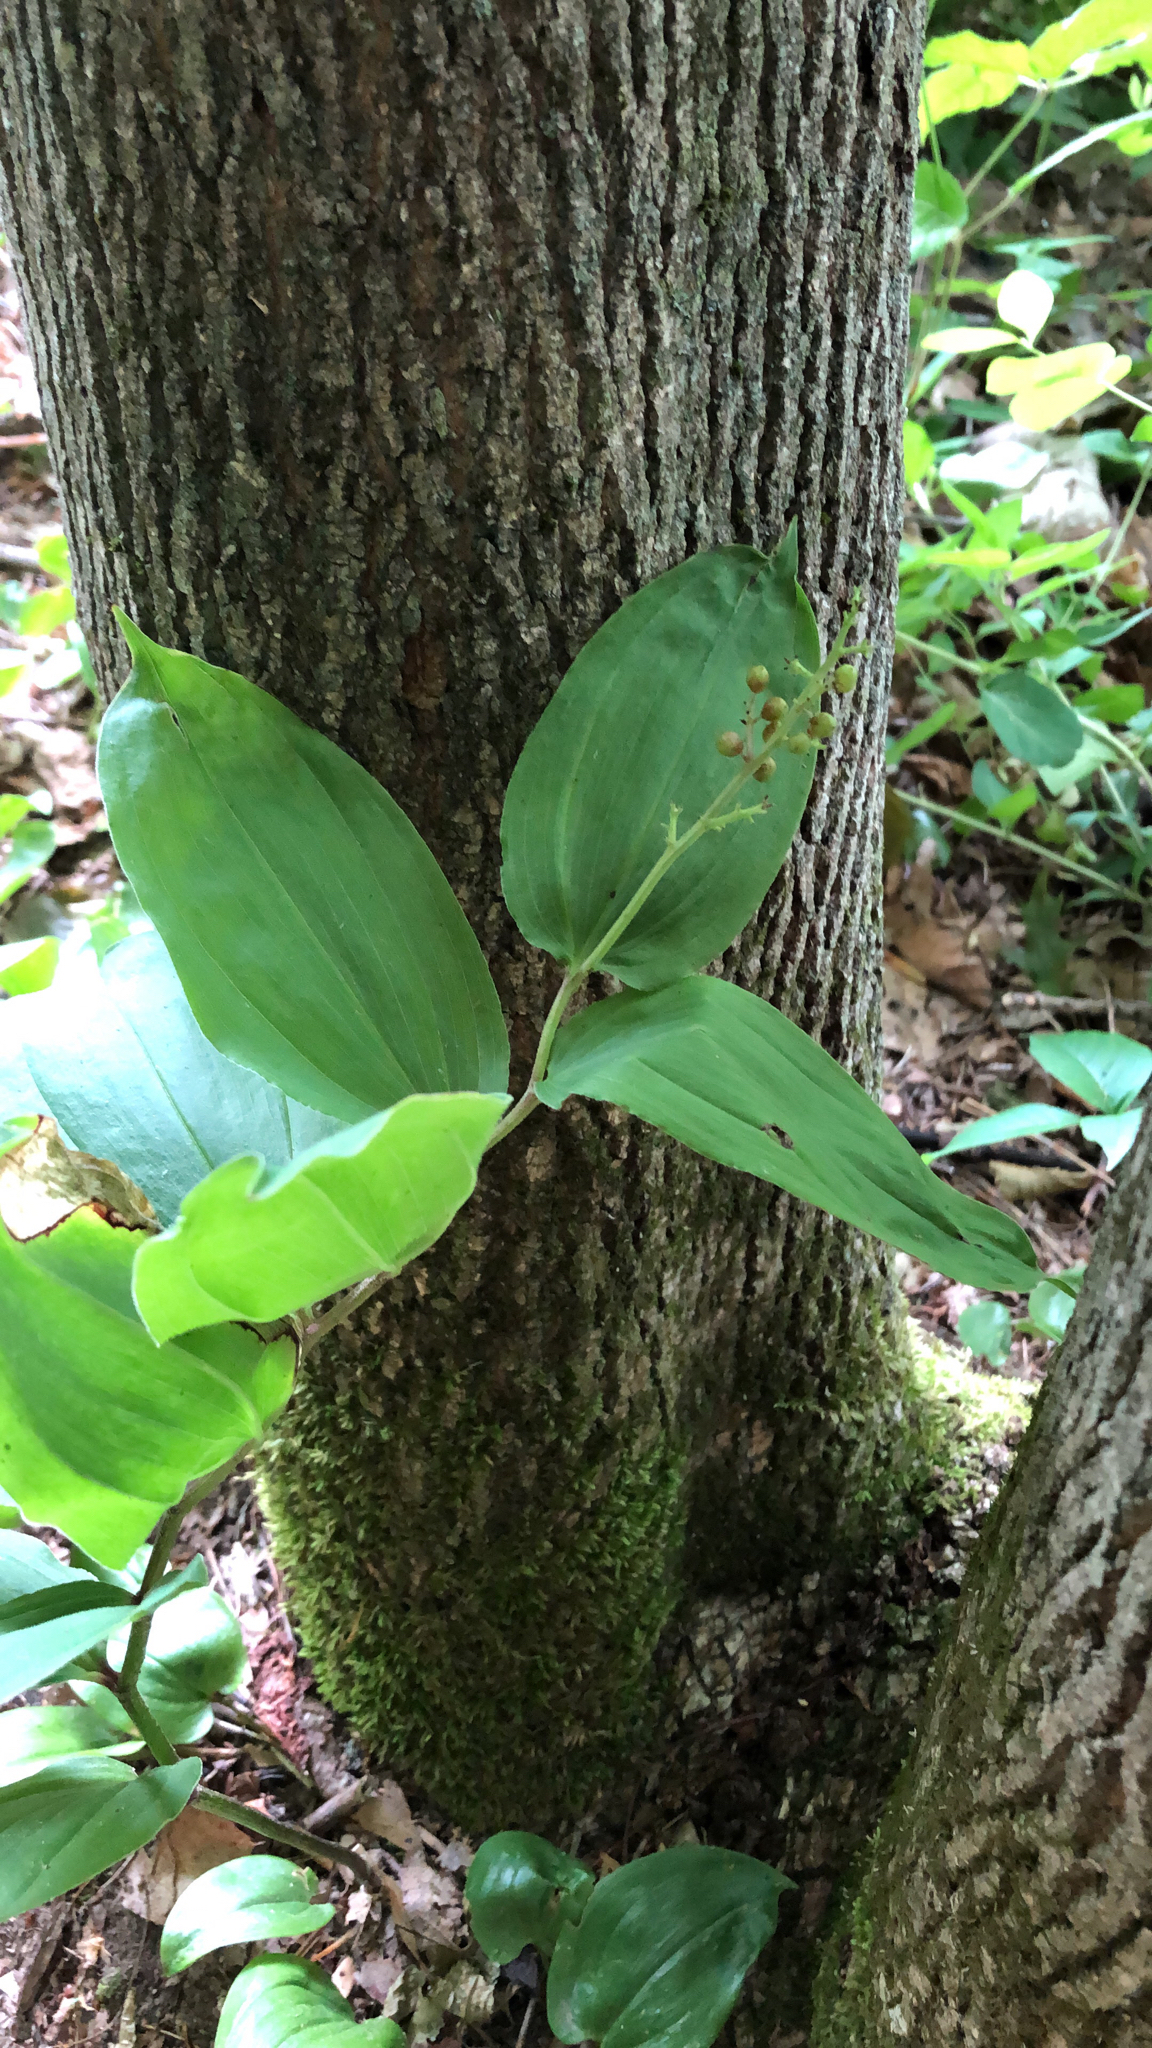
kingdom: Plantae
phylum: Tracheophyta
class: Liliopsida
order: Asparagales
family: Asparagaceae
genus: Maianthemum
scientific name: Maianthemum racemosum
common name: False spikenard
